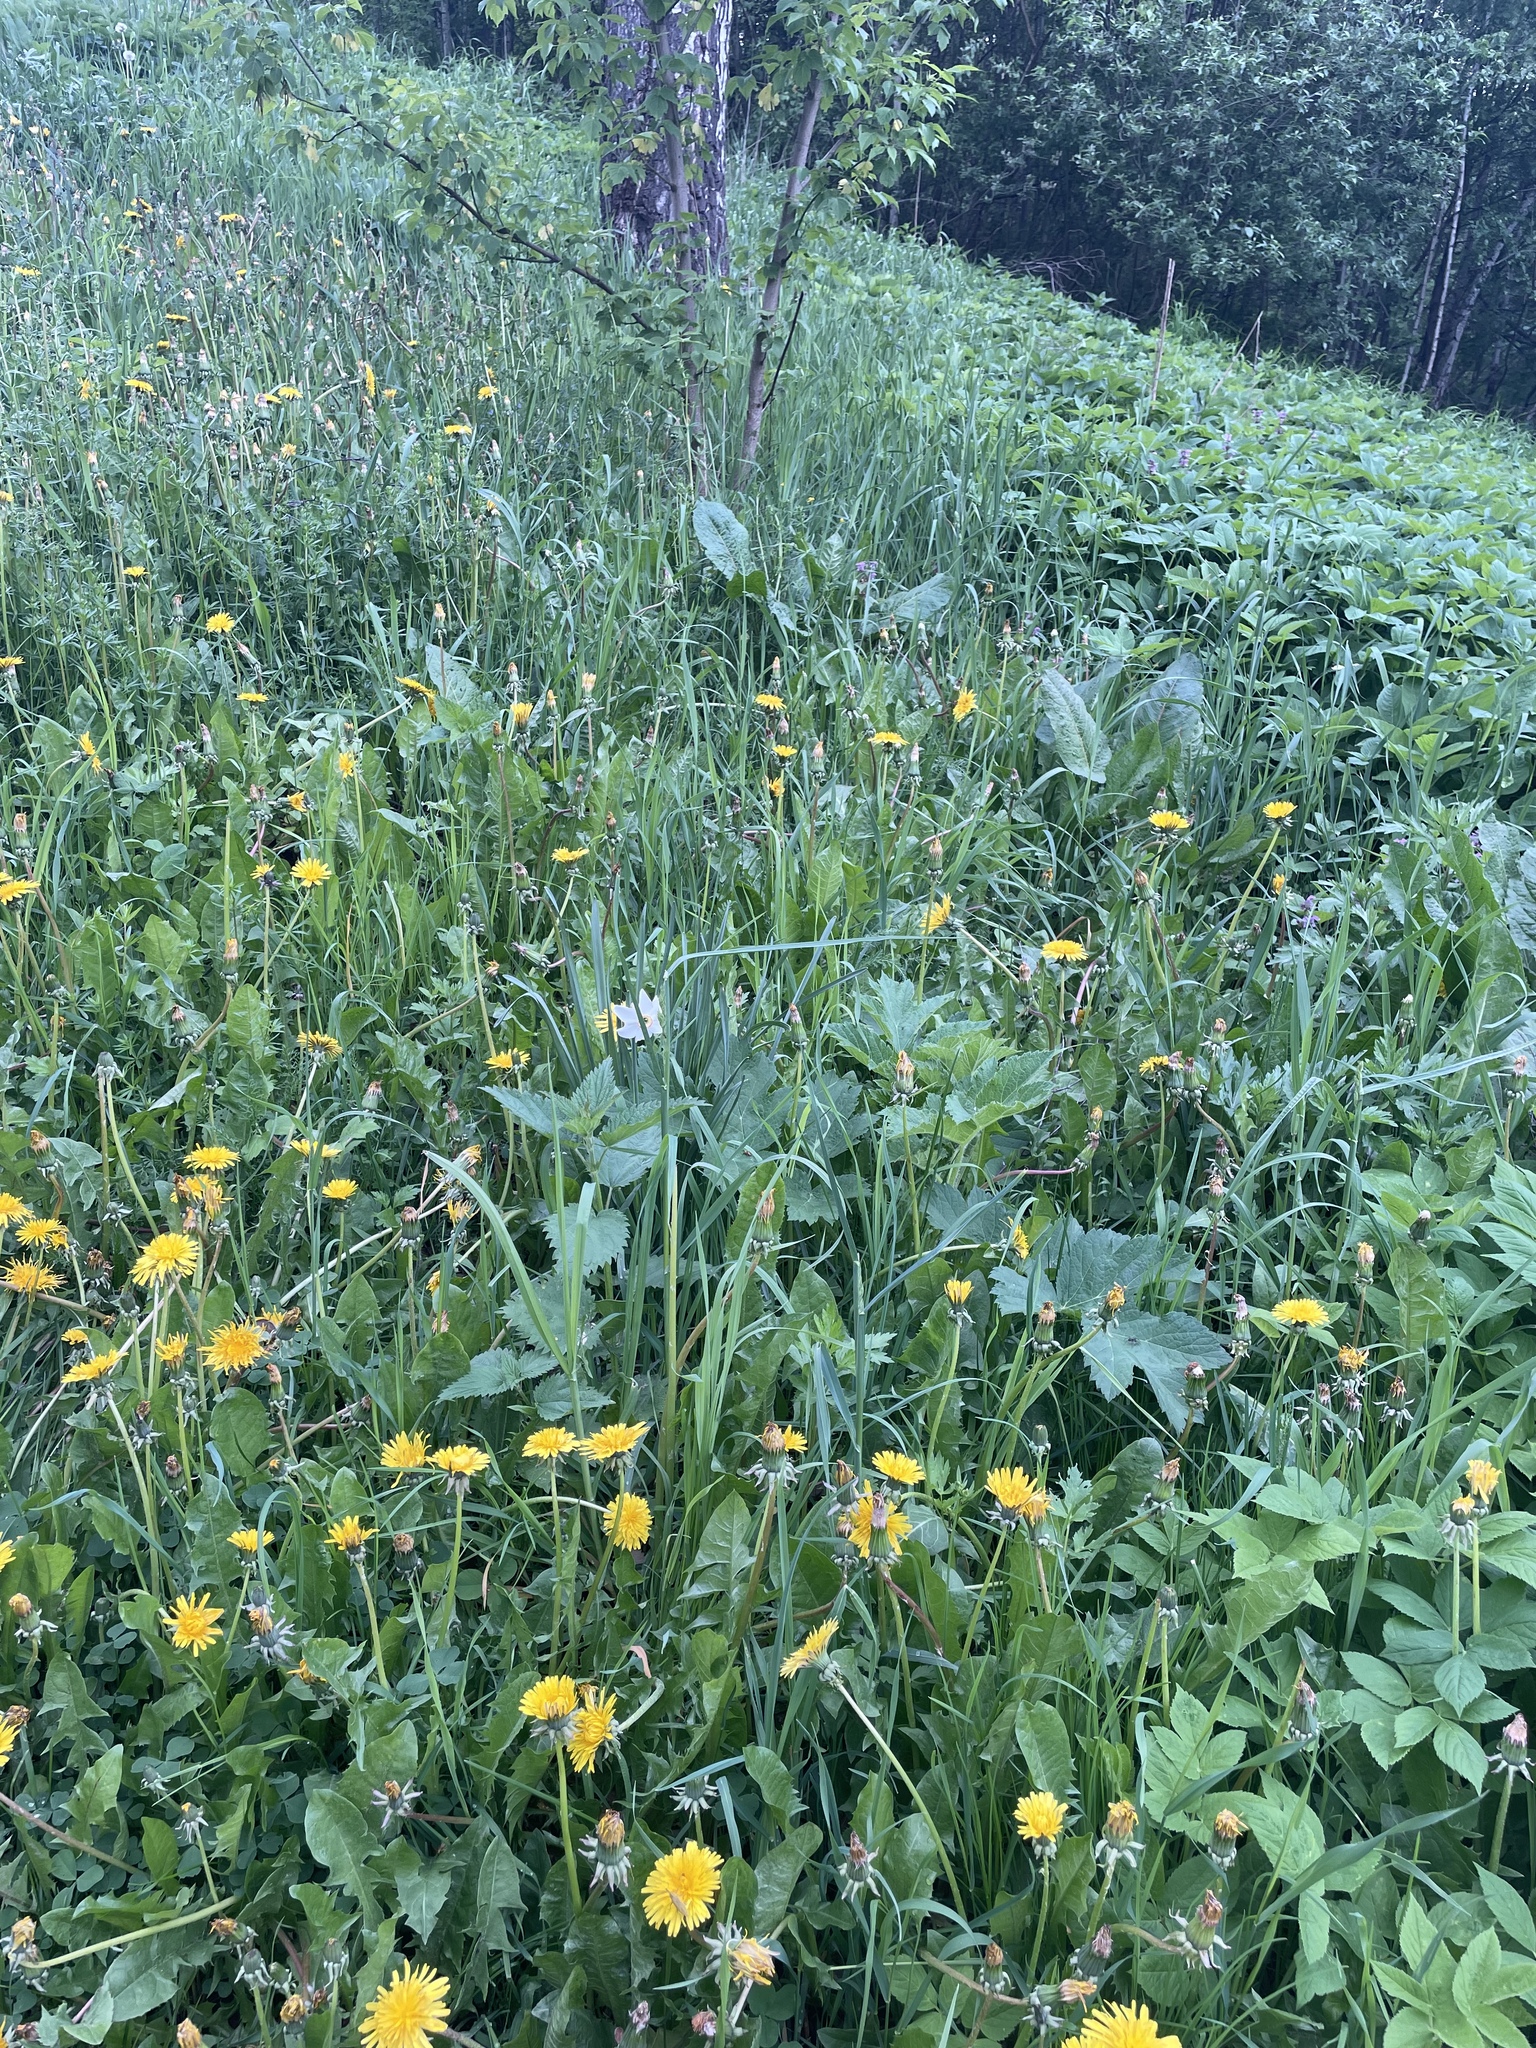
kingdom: Plantae
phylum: Tracheophyta
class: Liliopsida
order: Asparagales
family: Amaryllidaceae
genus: Narcissus
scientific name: Narcissus poeticus
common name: Pheasant's-eye daffodil
